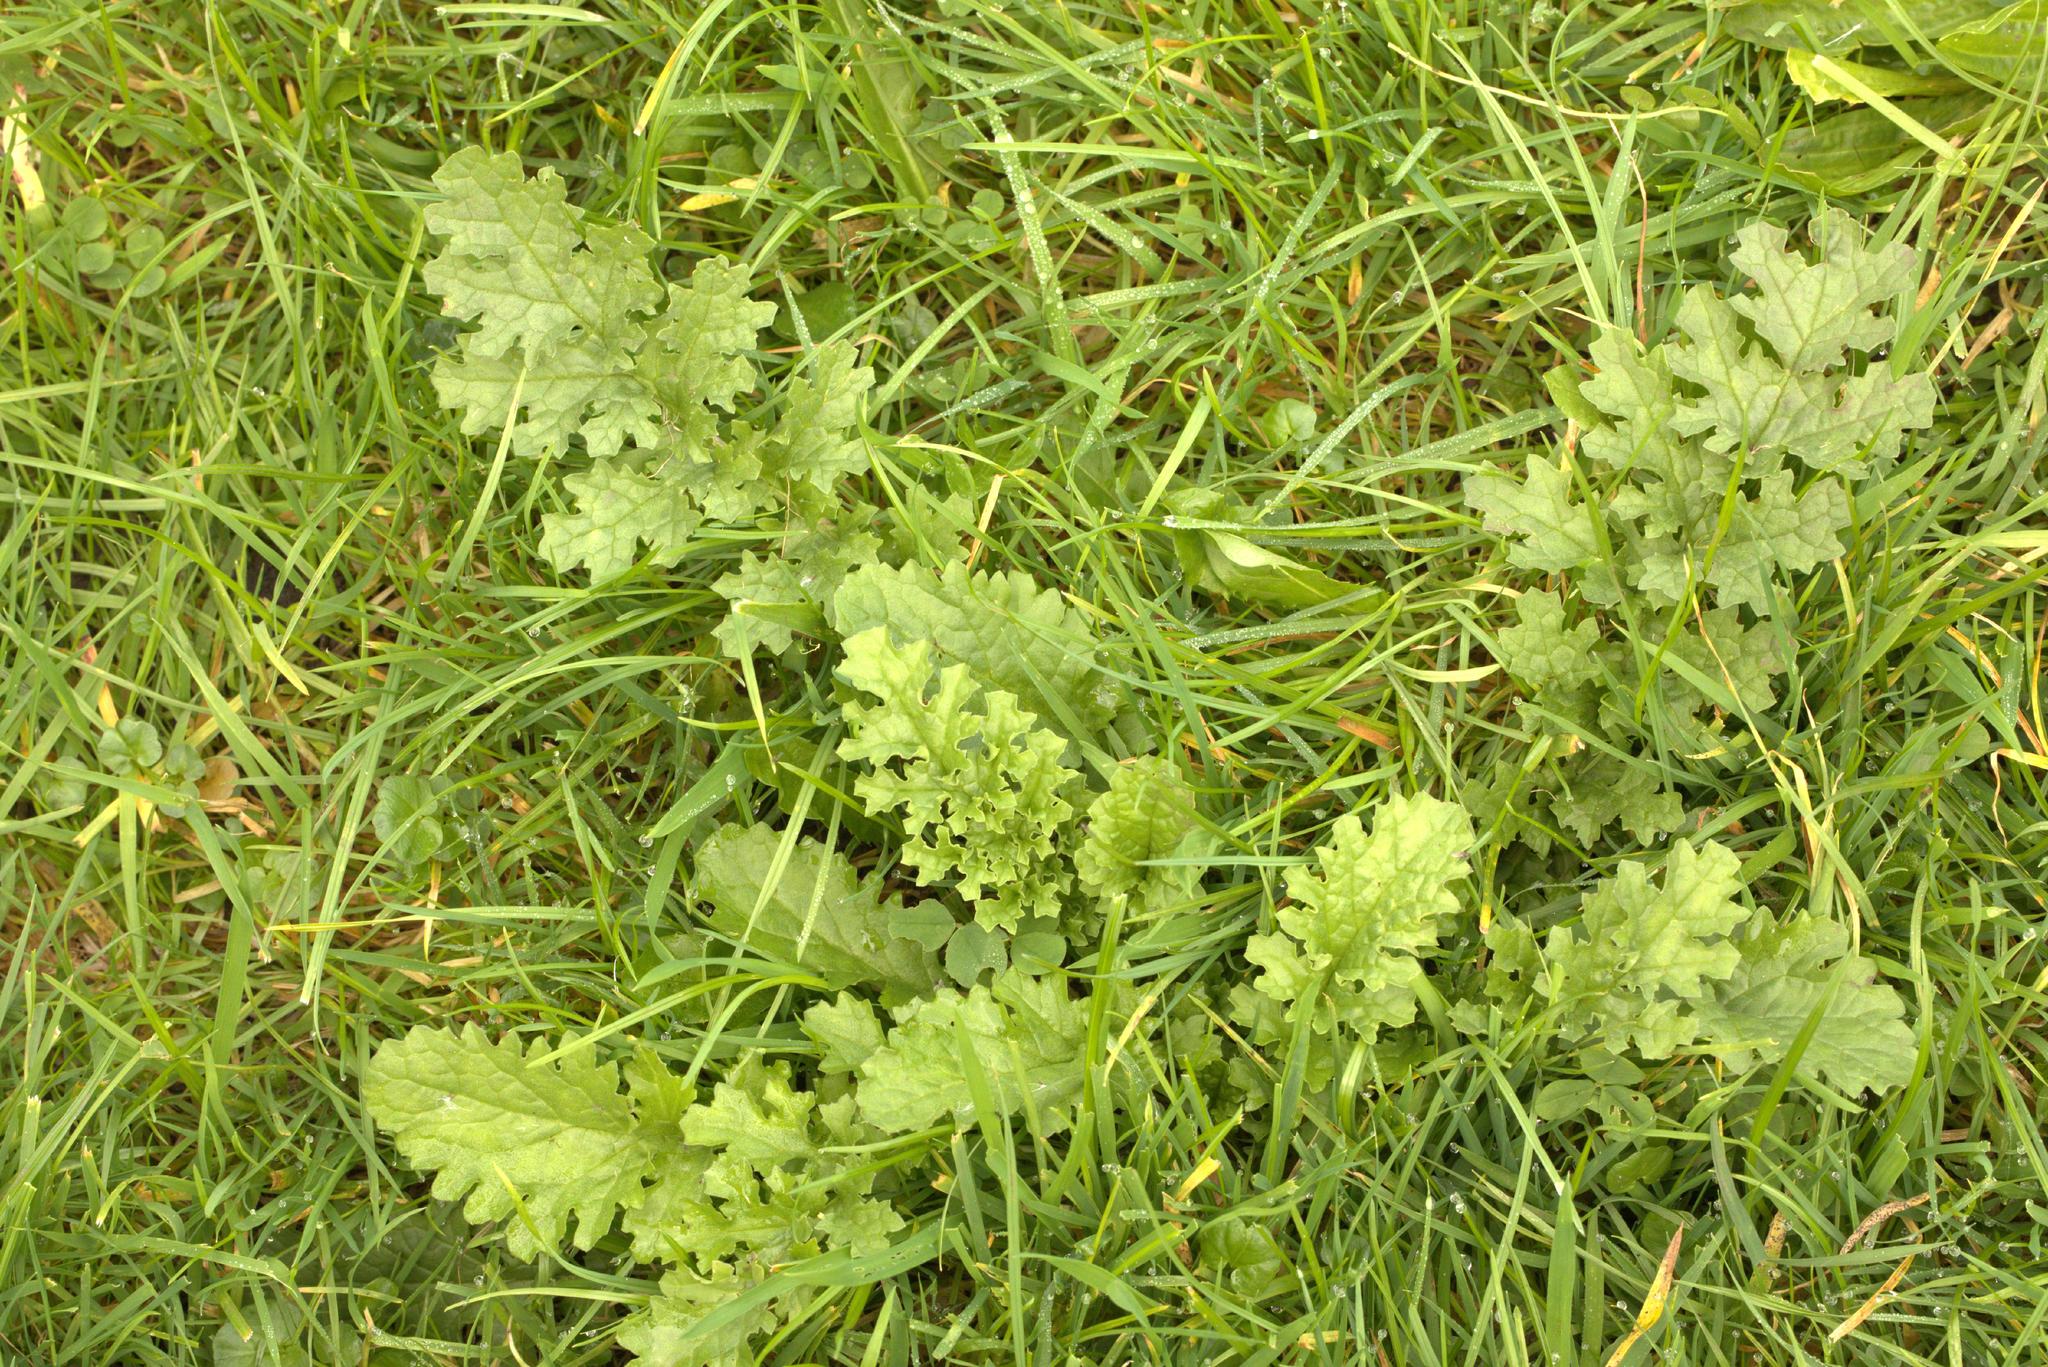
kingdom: Plantae
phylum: Tracheophyta
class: Magnoliopsida
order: Asterales
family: Asteraceae
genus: Jacobaea
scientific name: Jacobaea vulgaris
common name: Stinking willie
